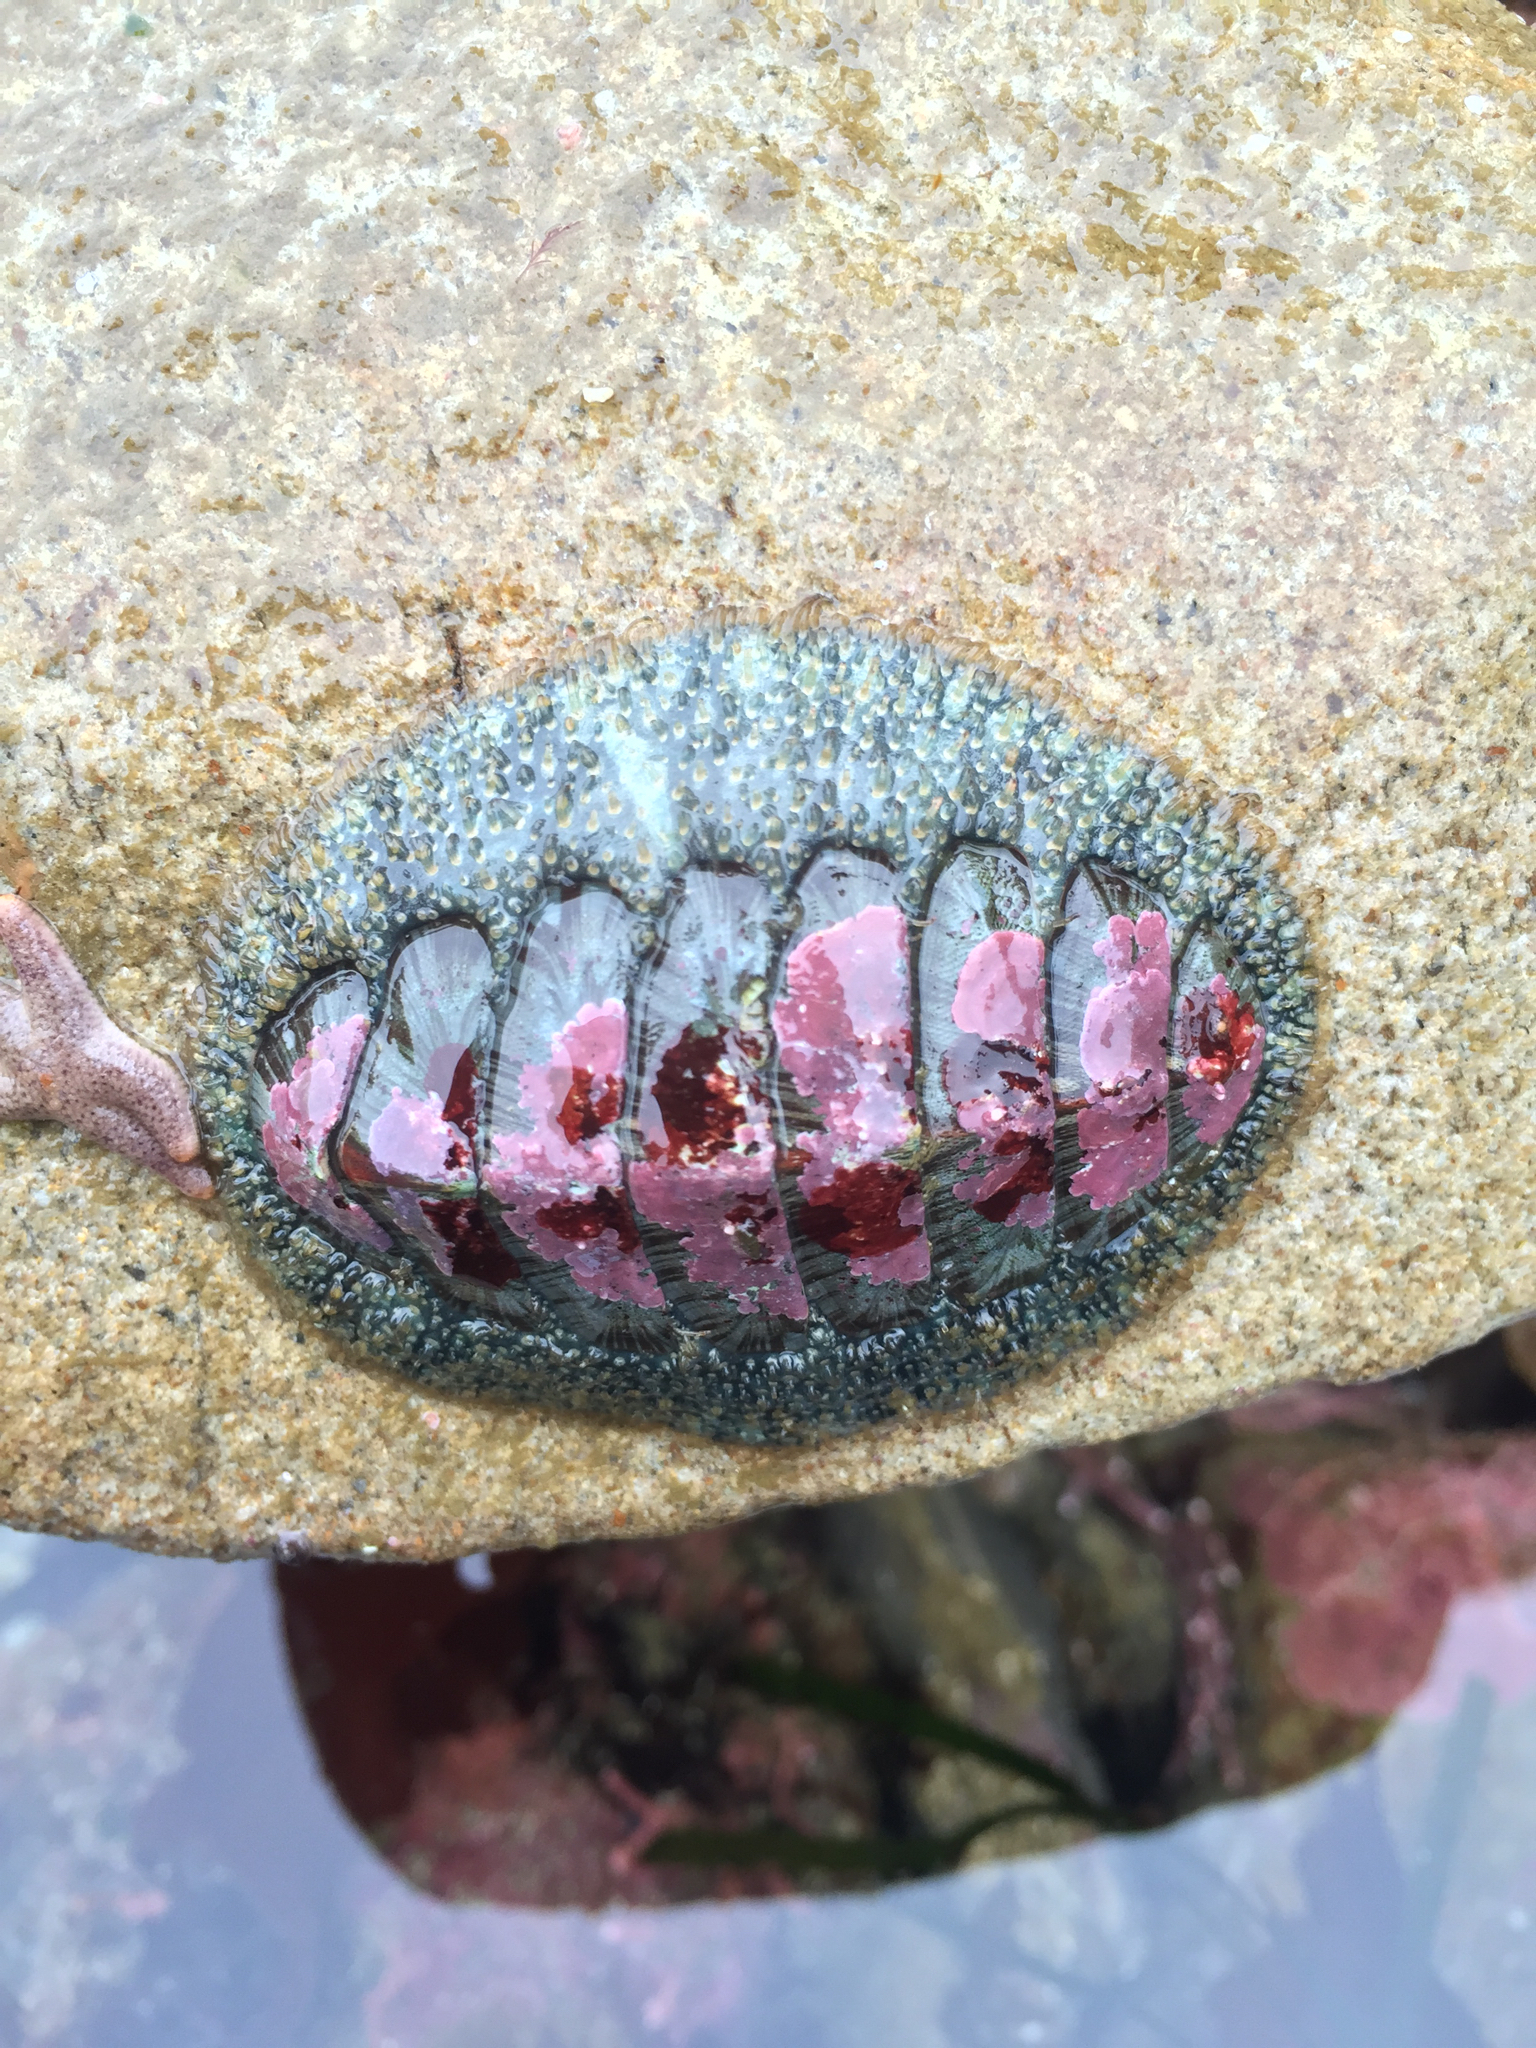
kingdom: Animalia
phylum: Mollusca
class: Polyplacophora
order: Chitonida
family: Mopaliidae
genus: Mopalia
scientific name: Mopalia lignosa
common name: Woody chiton
